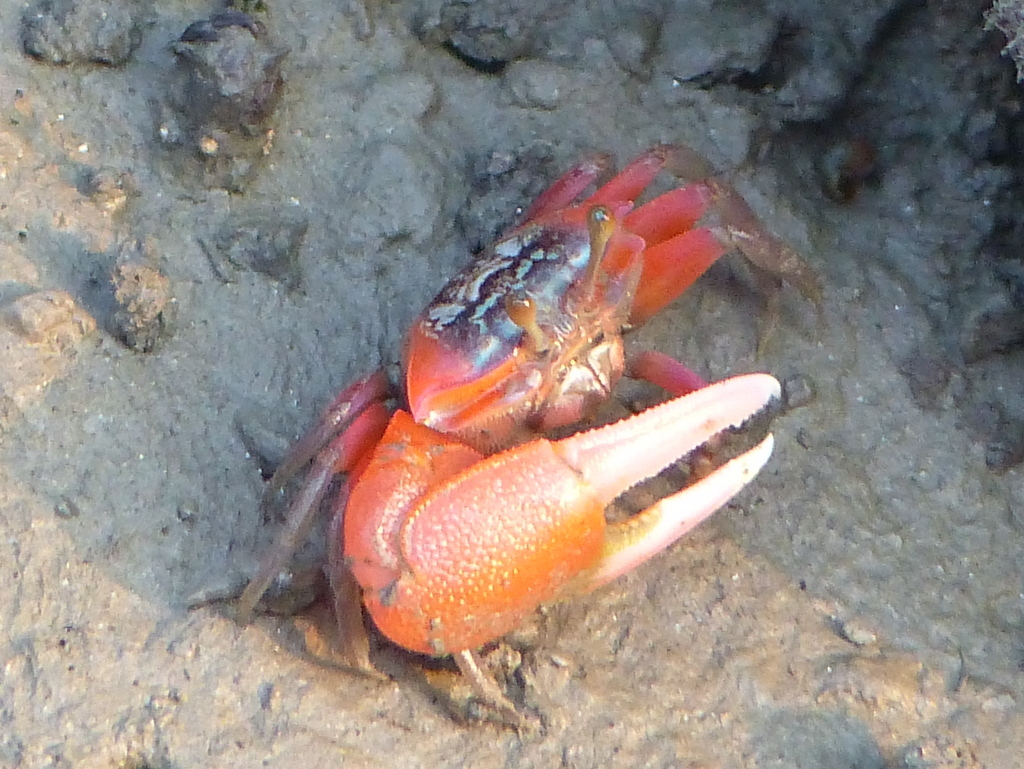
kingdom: Animalia
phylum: Arthropoda
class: Malacostraca
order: Decapoda
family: Ocypodidae
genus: Tubuca
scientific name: Tubuca rosea
